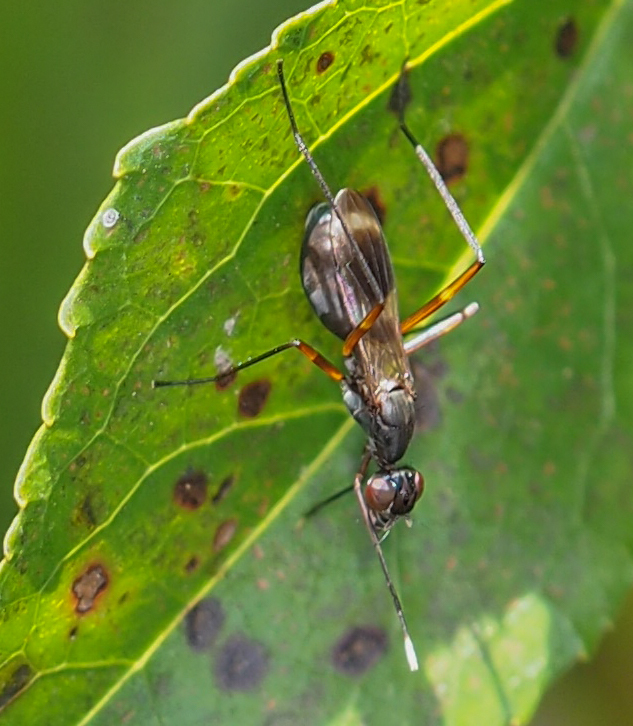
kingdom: Animalia
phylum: Arthropoda
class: Insecta
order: Diptera
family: Micropezidae
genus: Taeniaptera
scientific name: Taeniaptera trivittata
